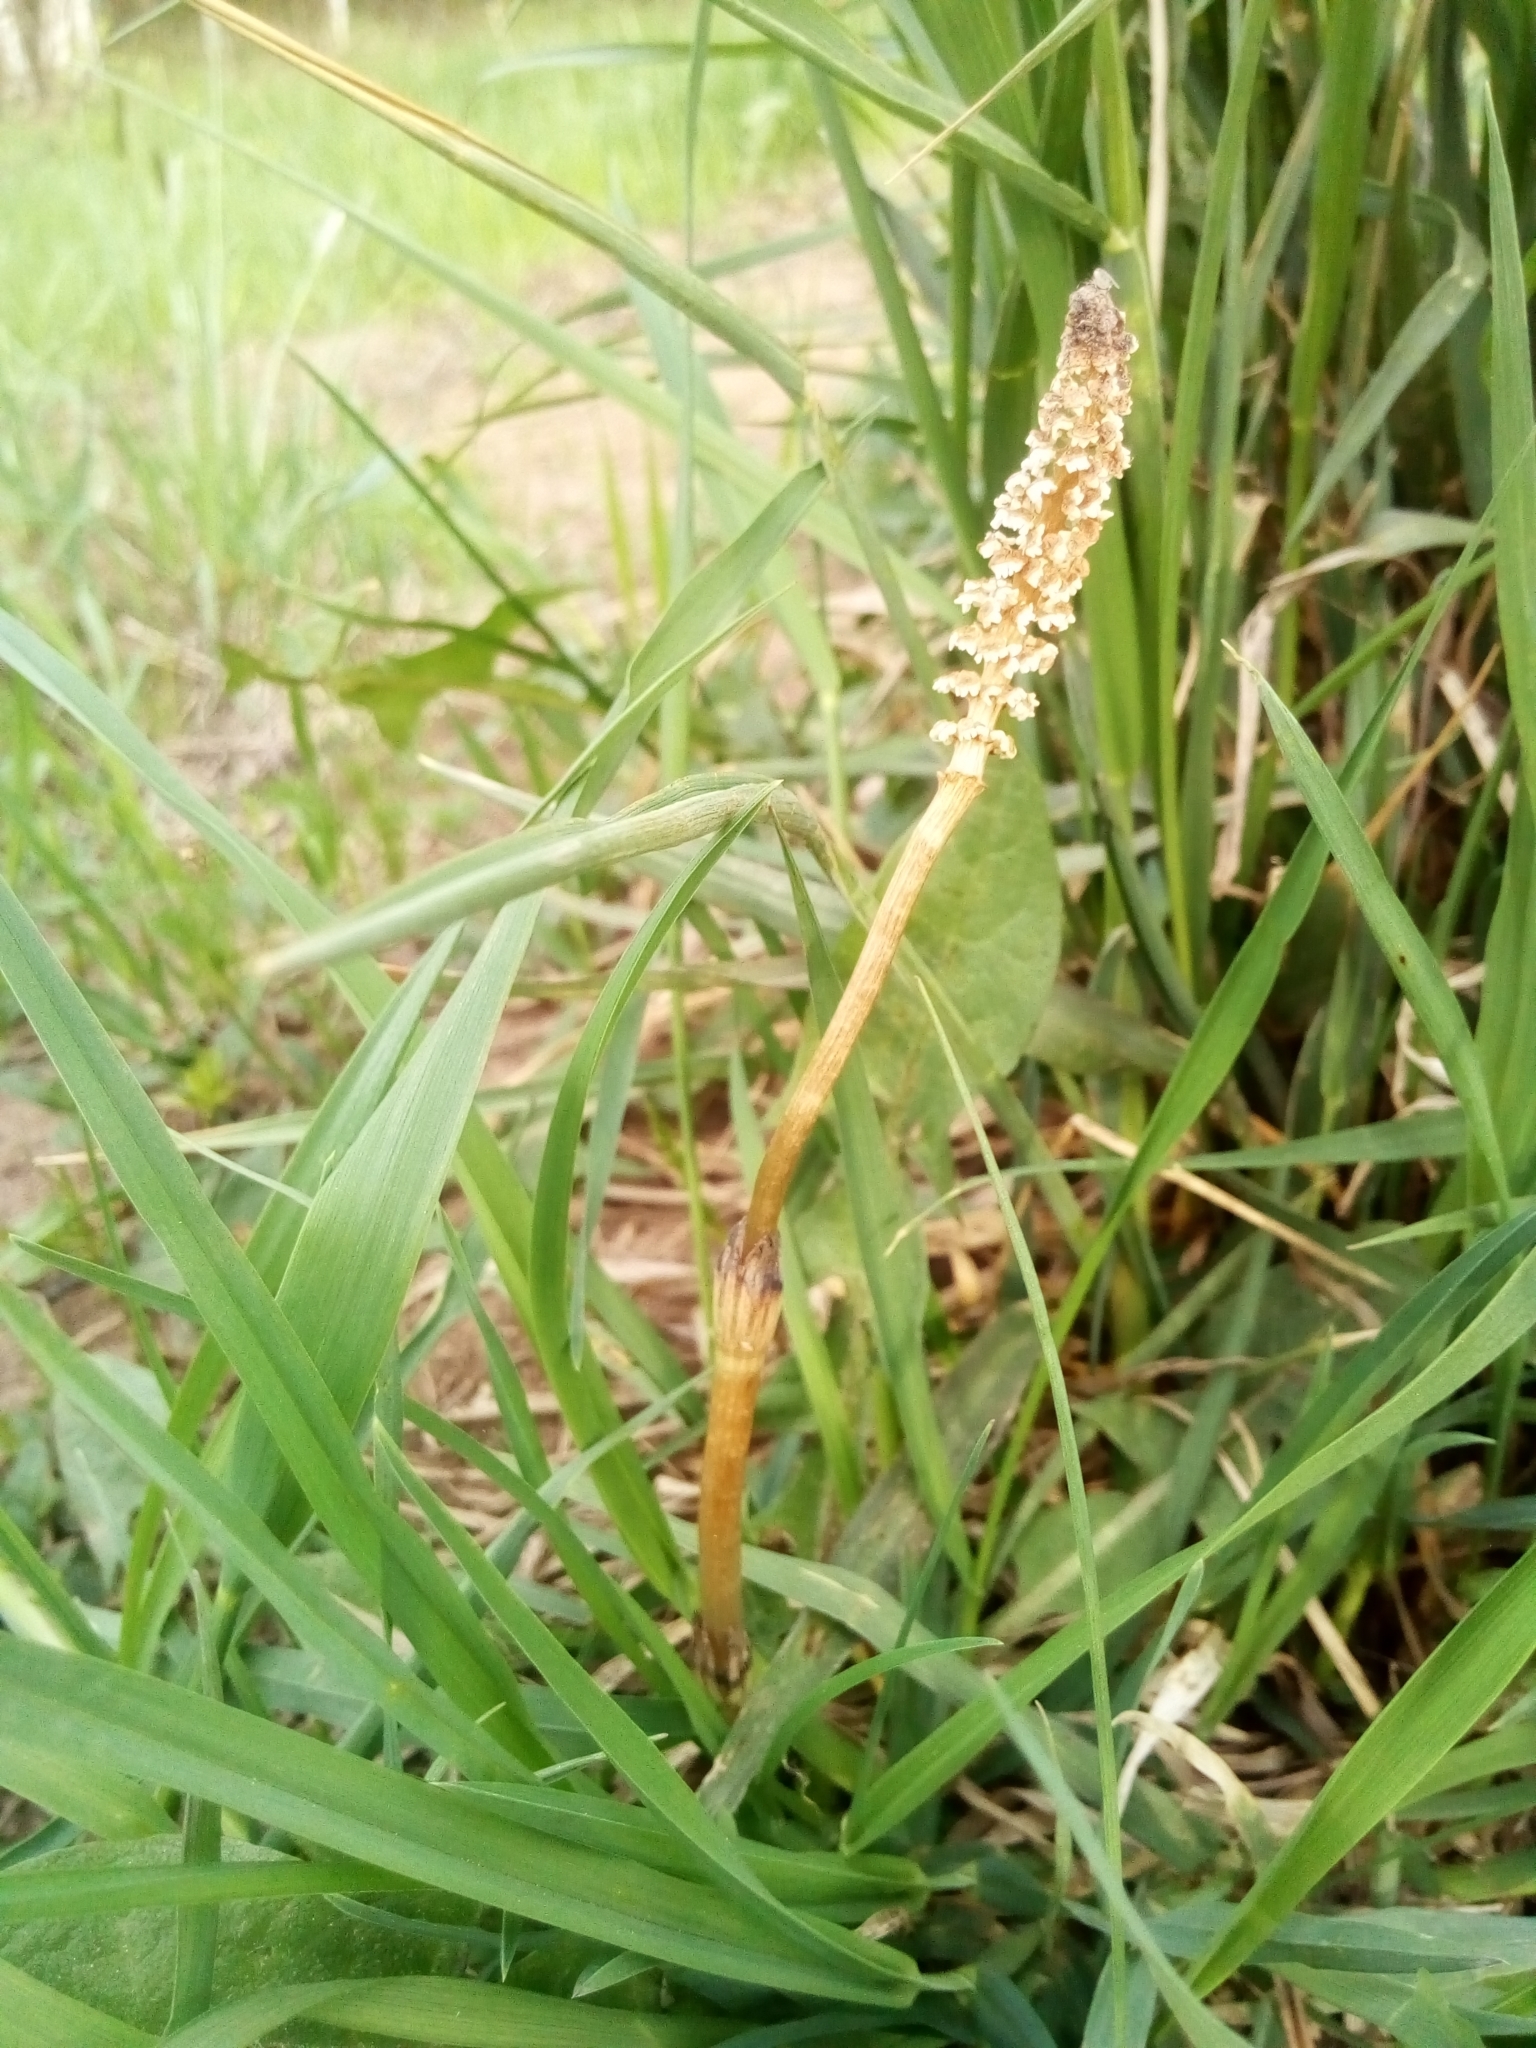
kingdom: Plantae
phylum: Tracheophyta
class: Polypodiopsida
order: Equisetales
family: Equisetaceae
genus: Equisetum
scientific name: Equisetum arvense
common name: Field horsetail
